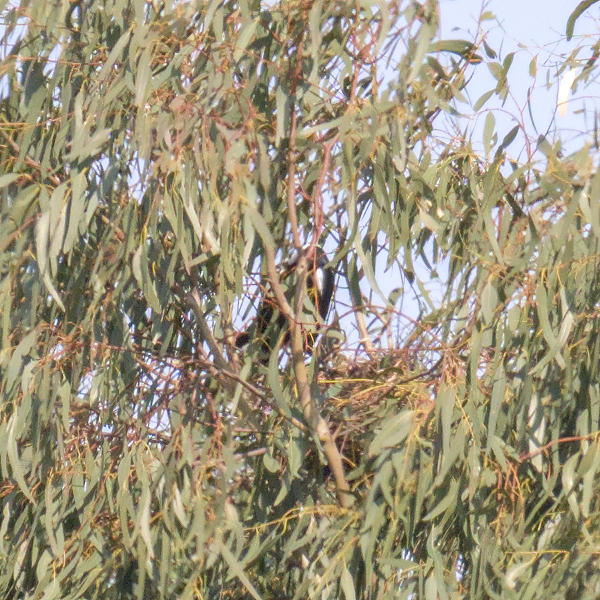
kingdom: Animalia
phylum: Chordata
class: Aves
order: Passeriformes
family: Cracticidae
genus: Gymnorhina
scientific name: Gymnorhina tibicen
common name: Australian magpie
